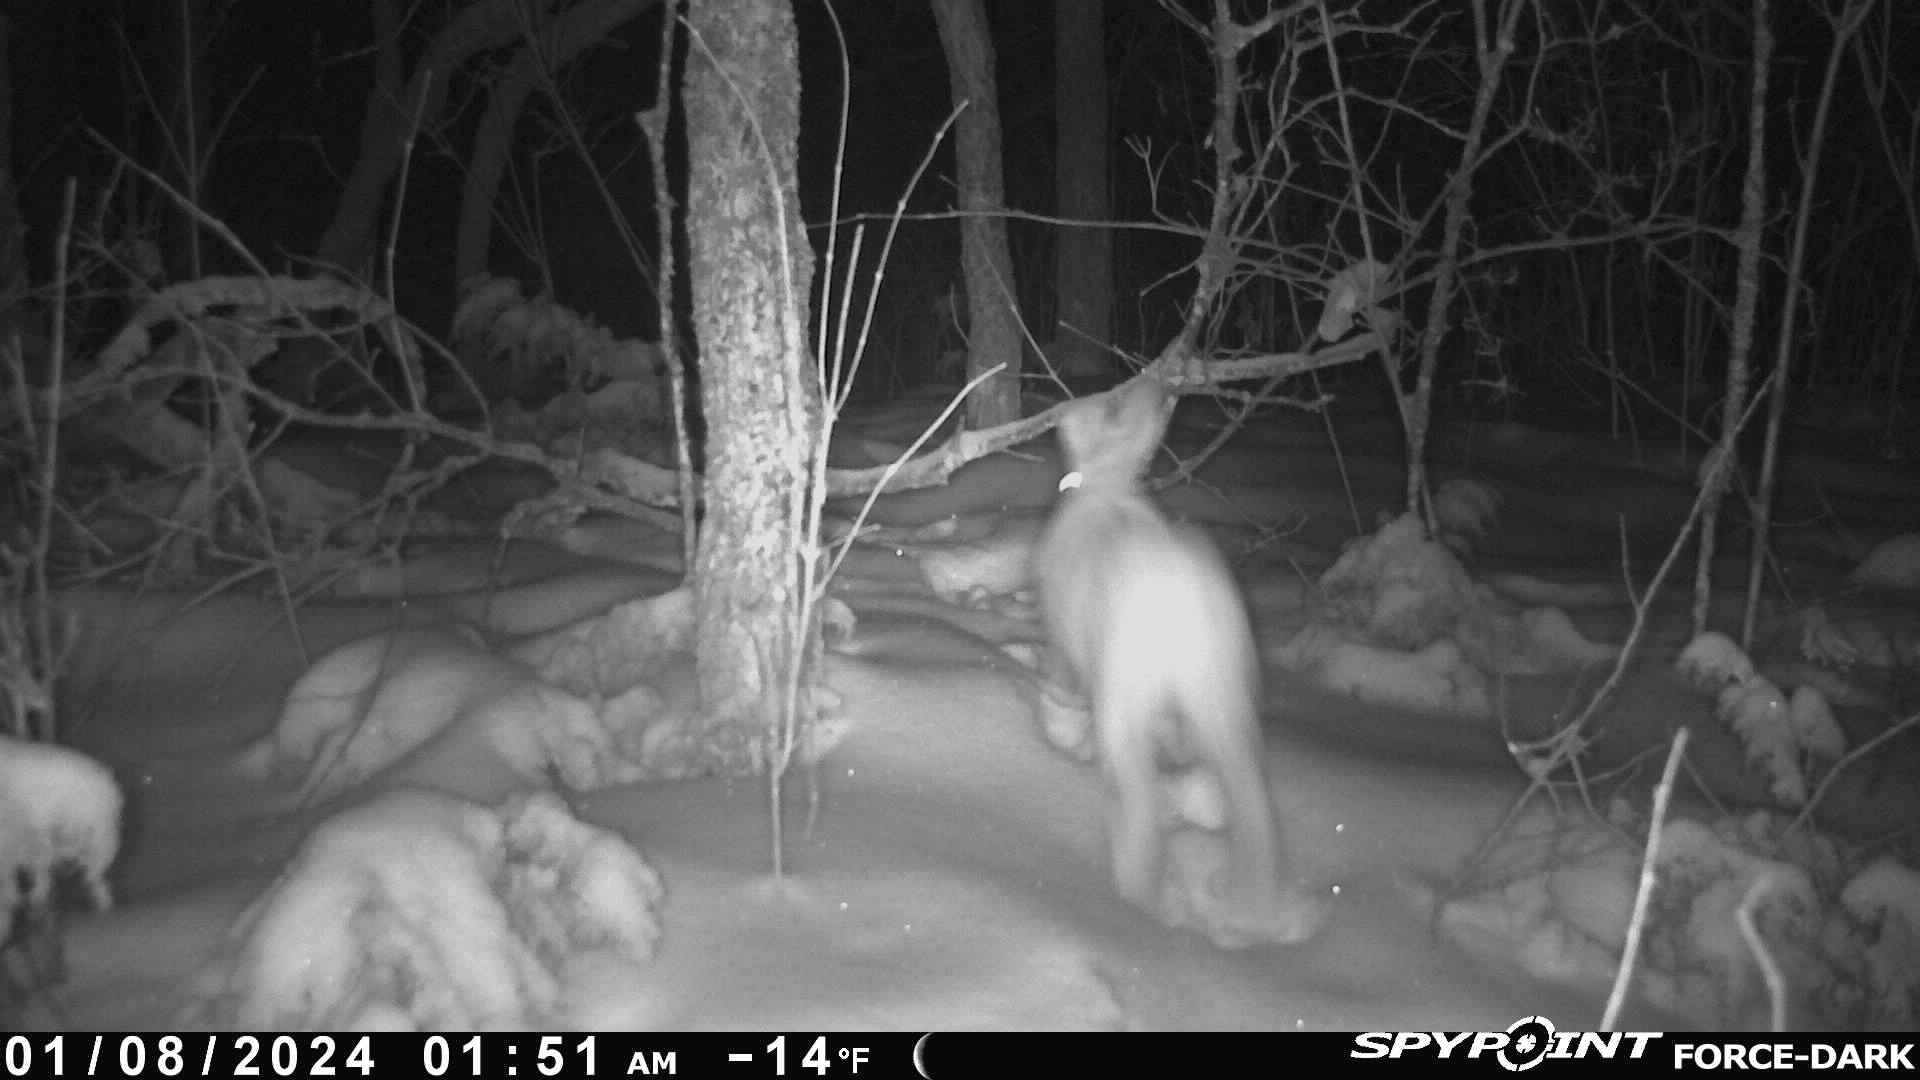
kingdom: Animalia
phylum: Chordata
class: Mammalia
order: Lagomorpha
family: Leporidae
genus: Lepus
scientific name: Lepus americanus
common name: Snowshoe hare
